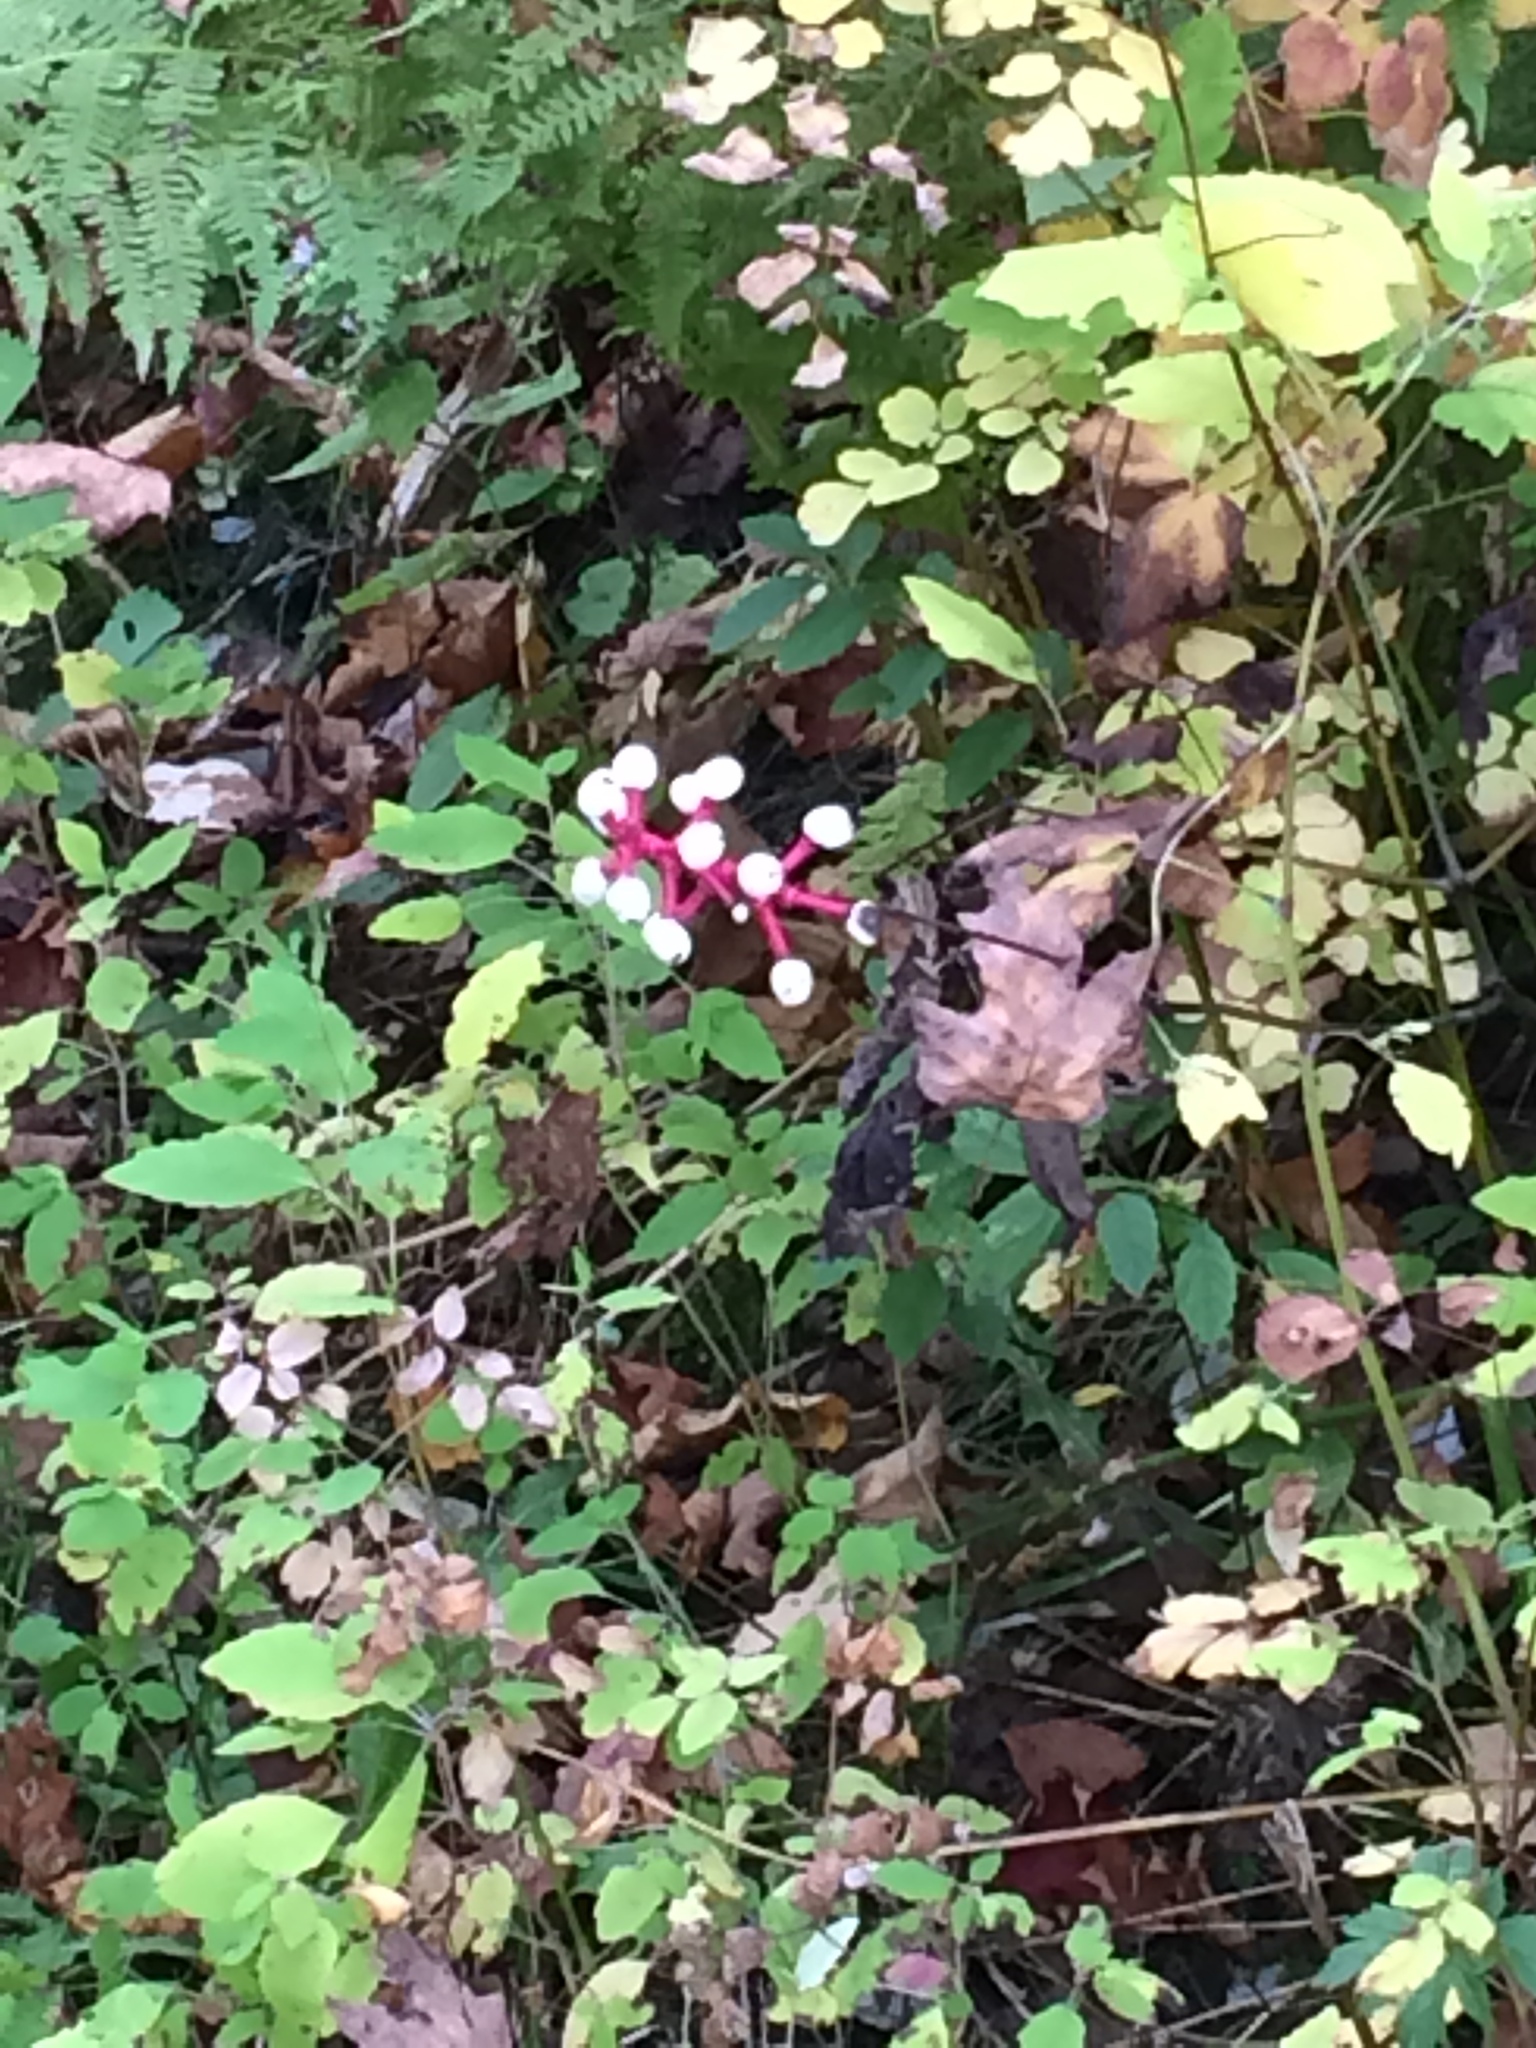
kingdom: Plantae
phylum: Tracheophyta
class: Magnoliopsida
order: Ranunculales
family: Ranunculaceae
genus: Actaea
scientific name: Actaea pachypoda
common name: Doll's-eyes
